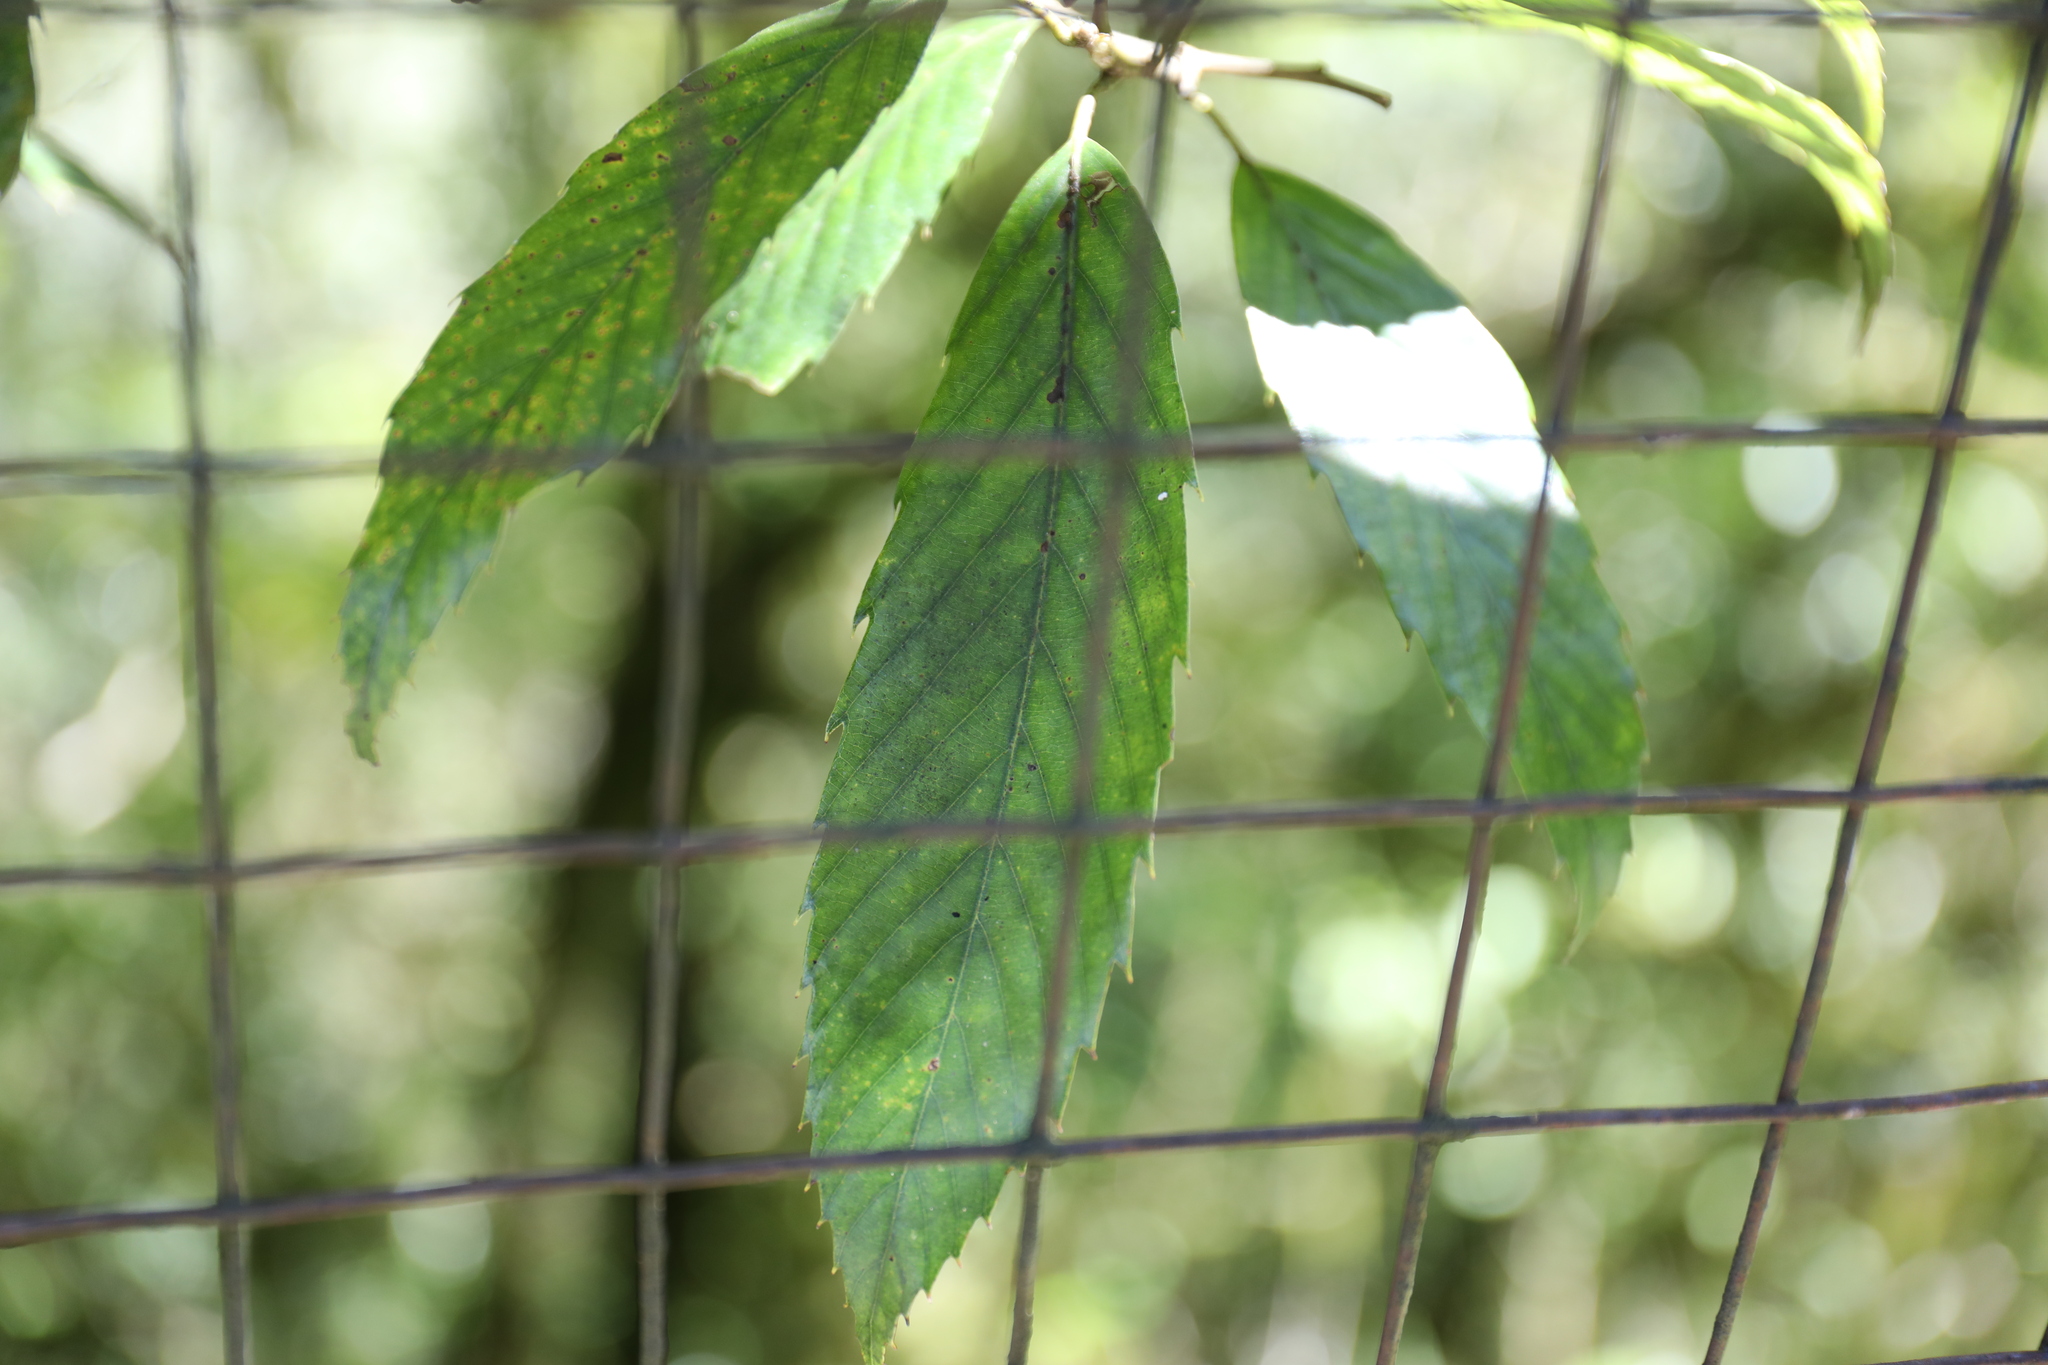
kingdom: Plantae
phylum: Tracheophyta
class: Magnoliopsida
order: Fagales
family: Fagaceae
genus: Quercus
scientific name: Quercus stenophylloides
